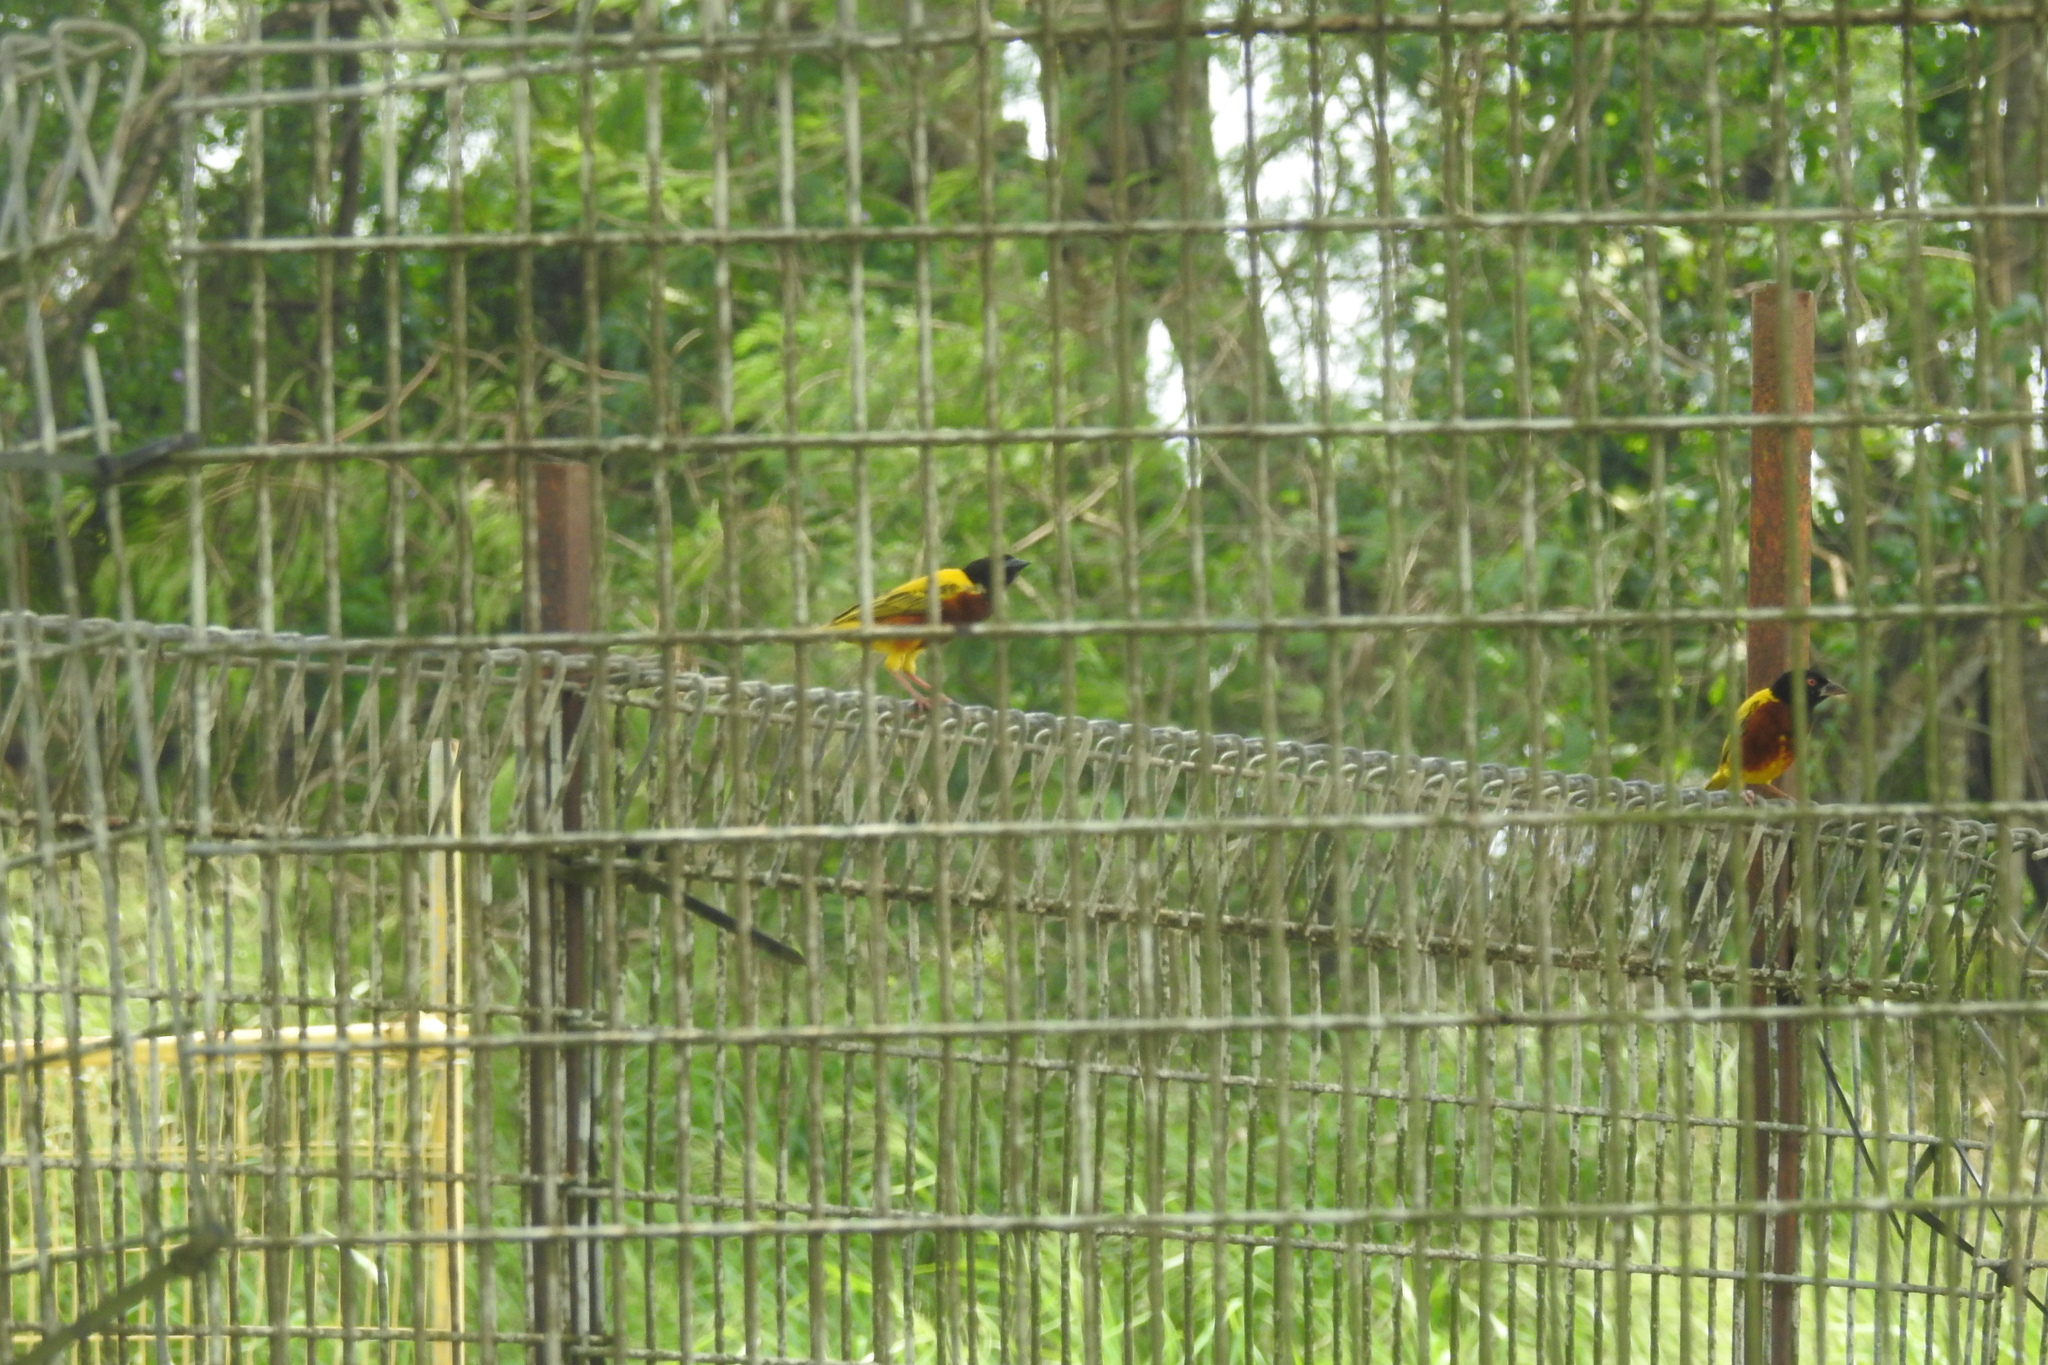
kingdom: Animalia
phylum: Chordata
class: Aves
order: Passeriformes
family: Ploceidae
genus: Ploceus
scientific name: Ploceus jacksoni
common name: Golden-backed weaver
